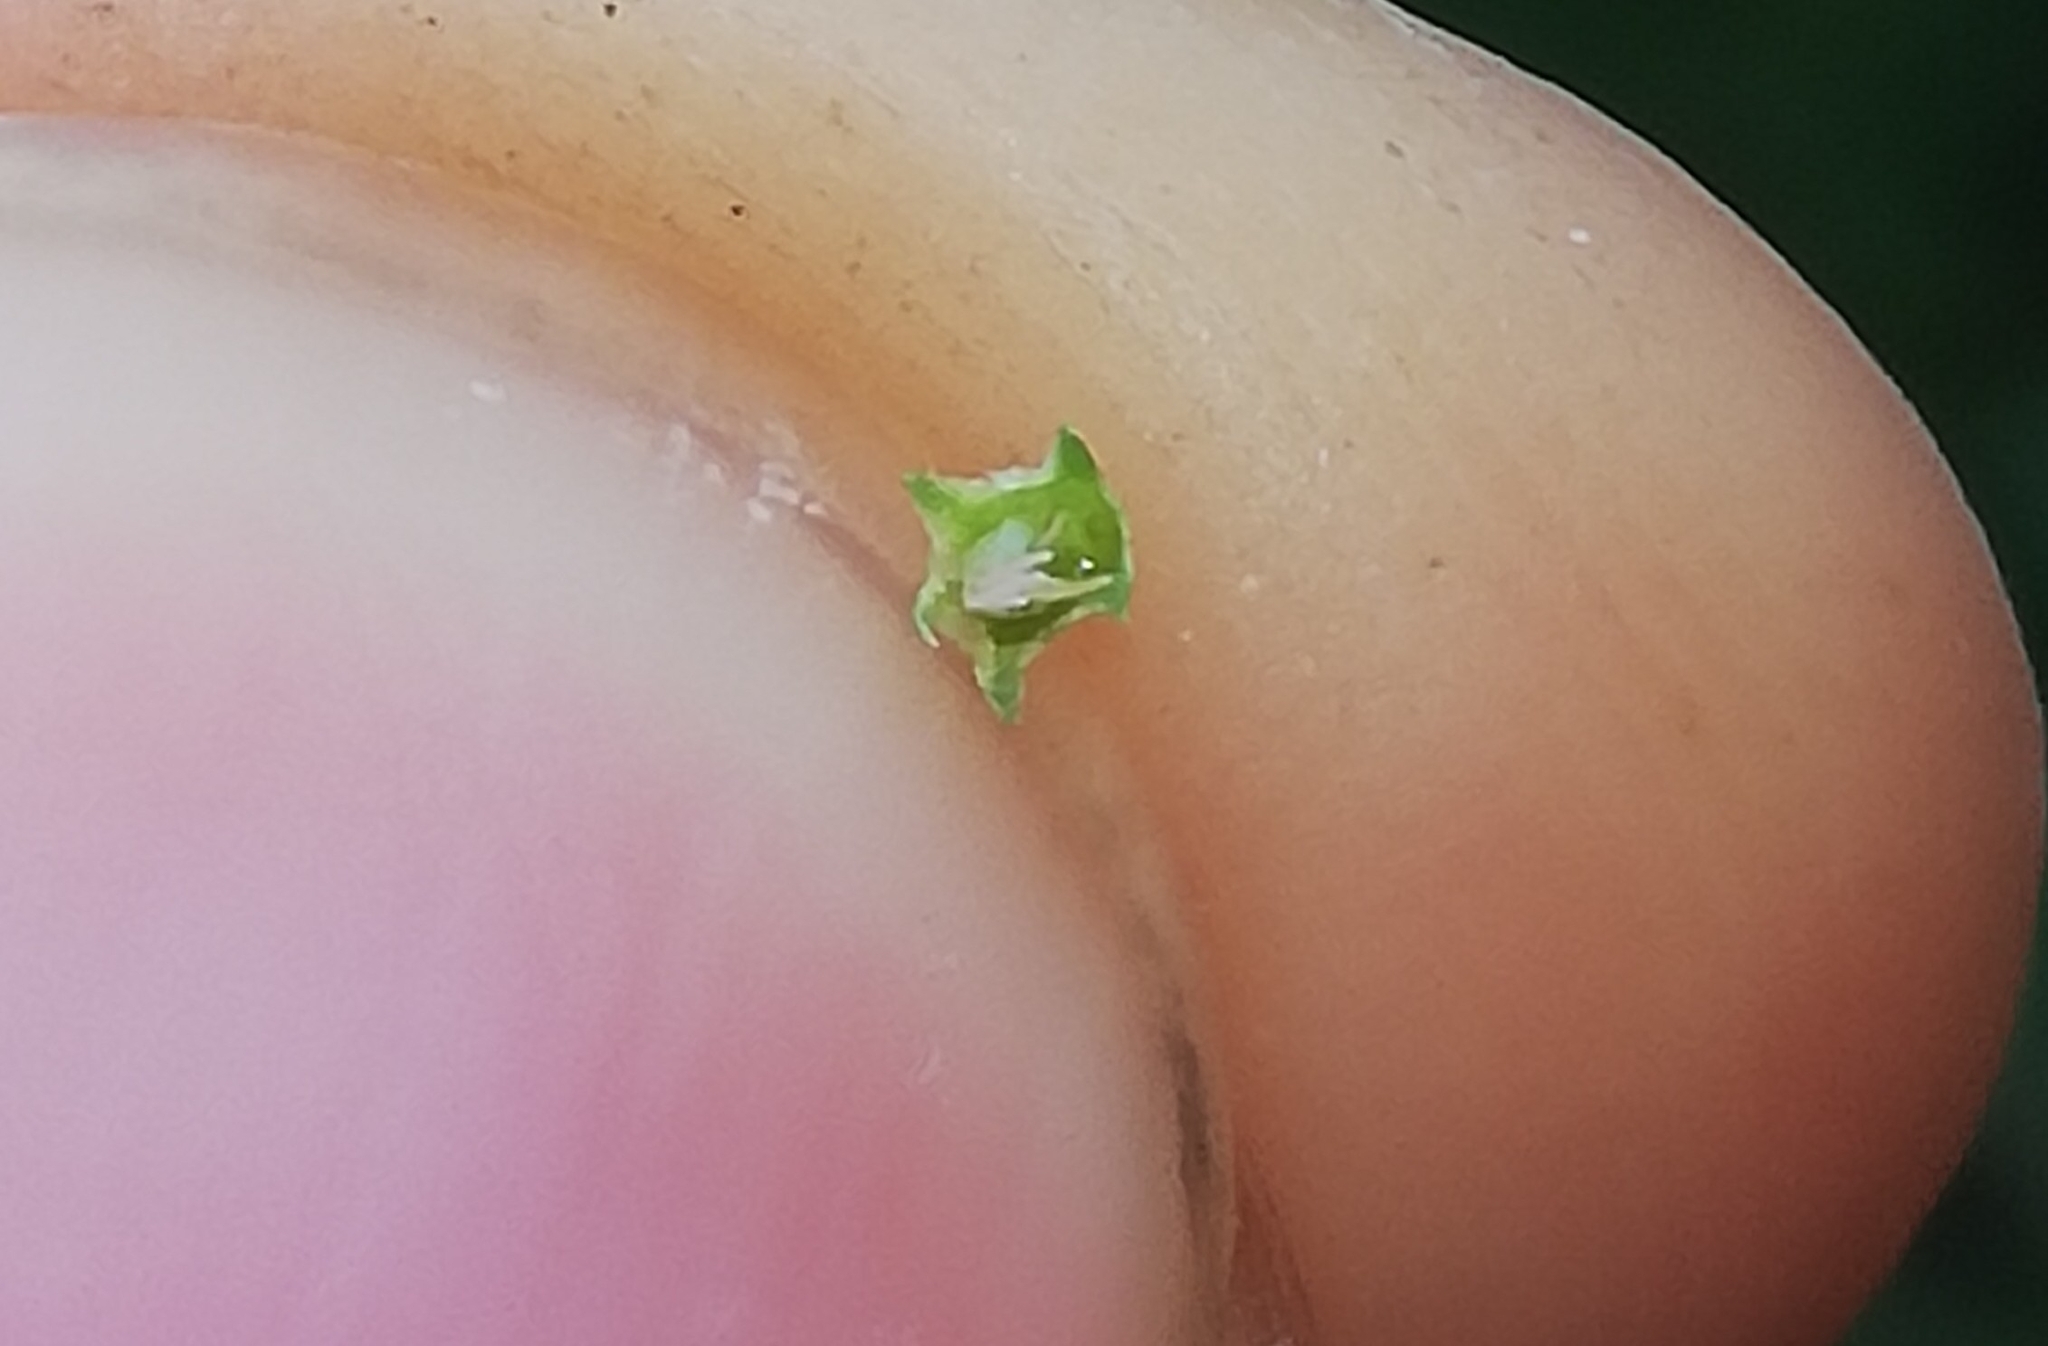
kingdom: Plantae
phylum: Tracheophyta
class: Magnoliopsida
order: Fabales
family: Fabaceae
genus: Melilotus
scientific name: Melilotus albus
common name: White melilot
